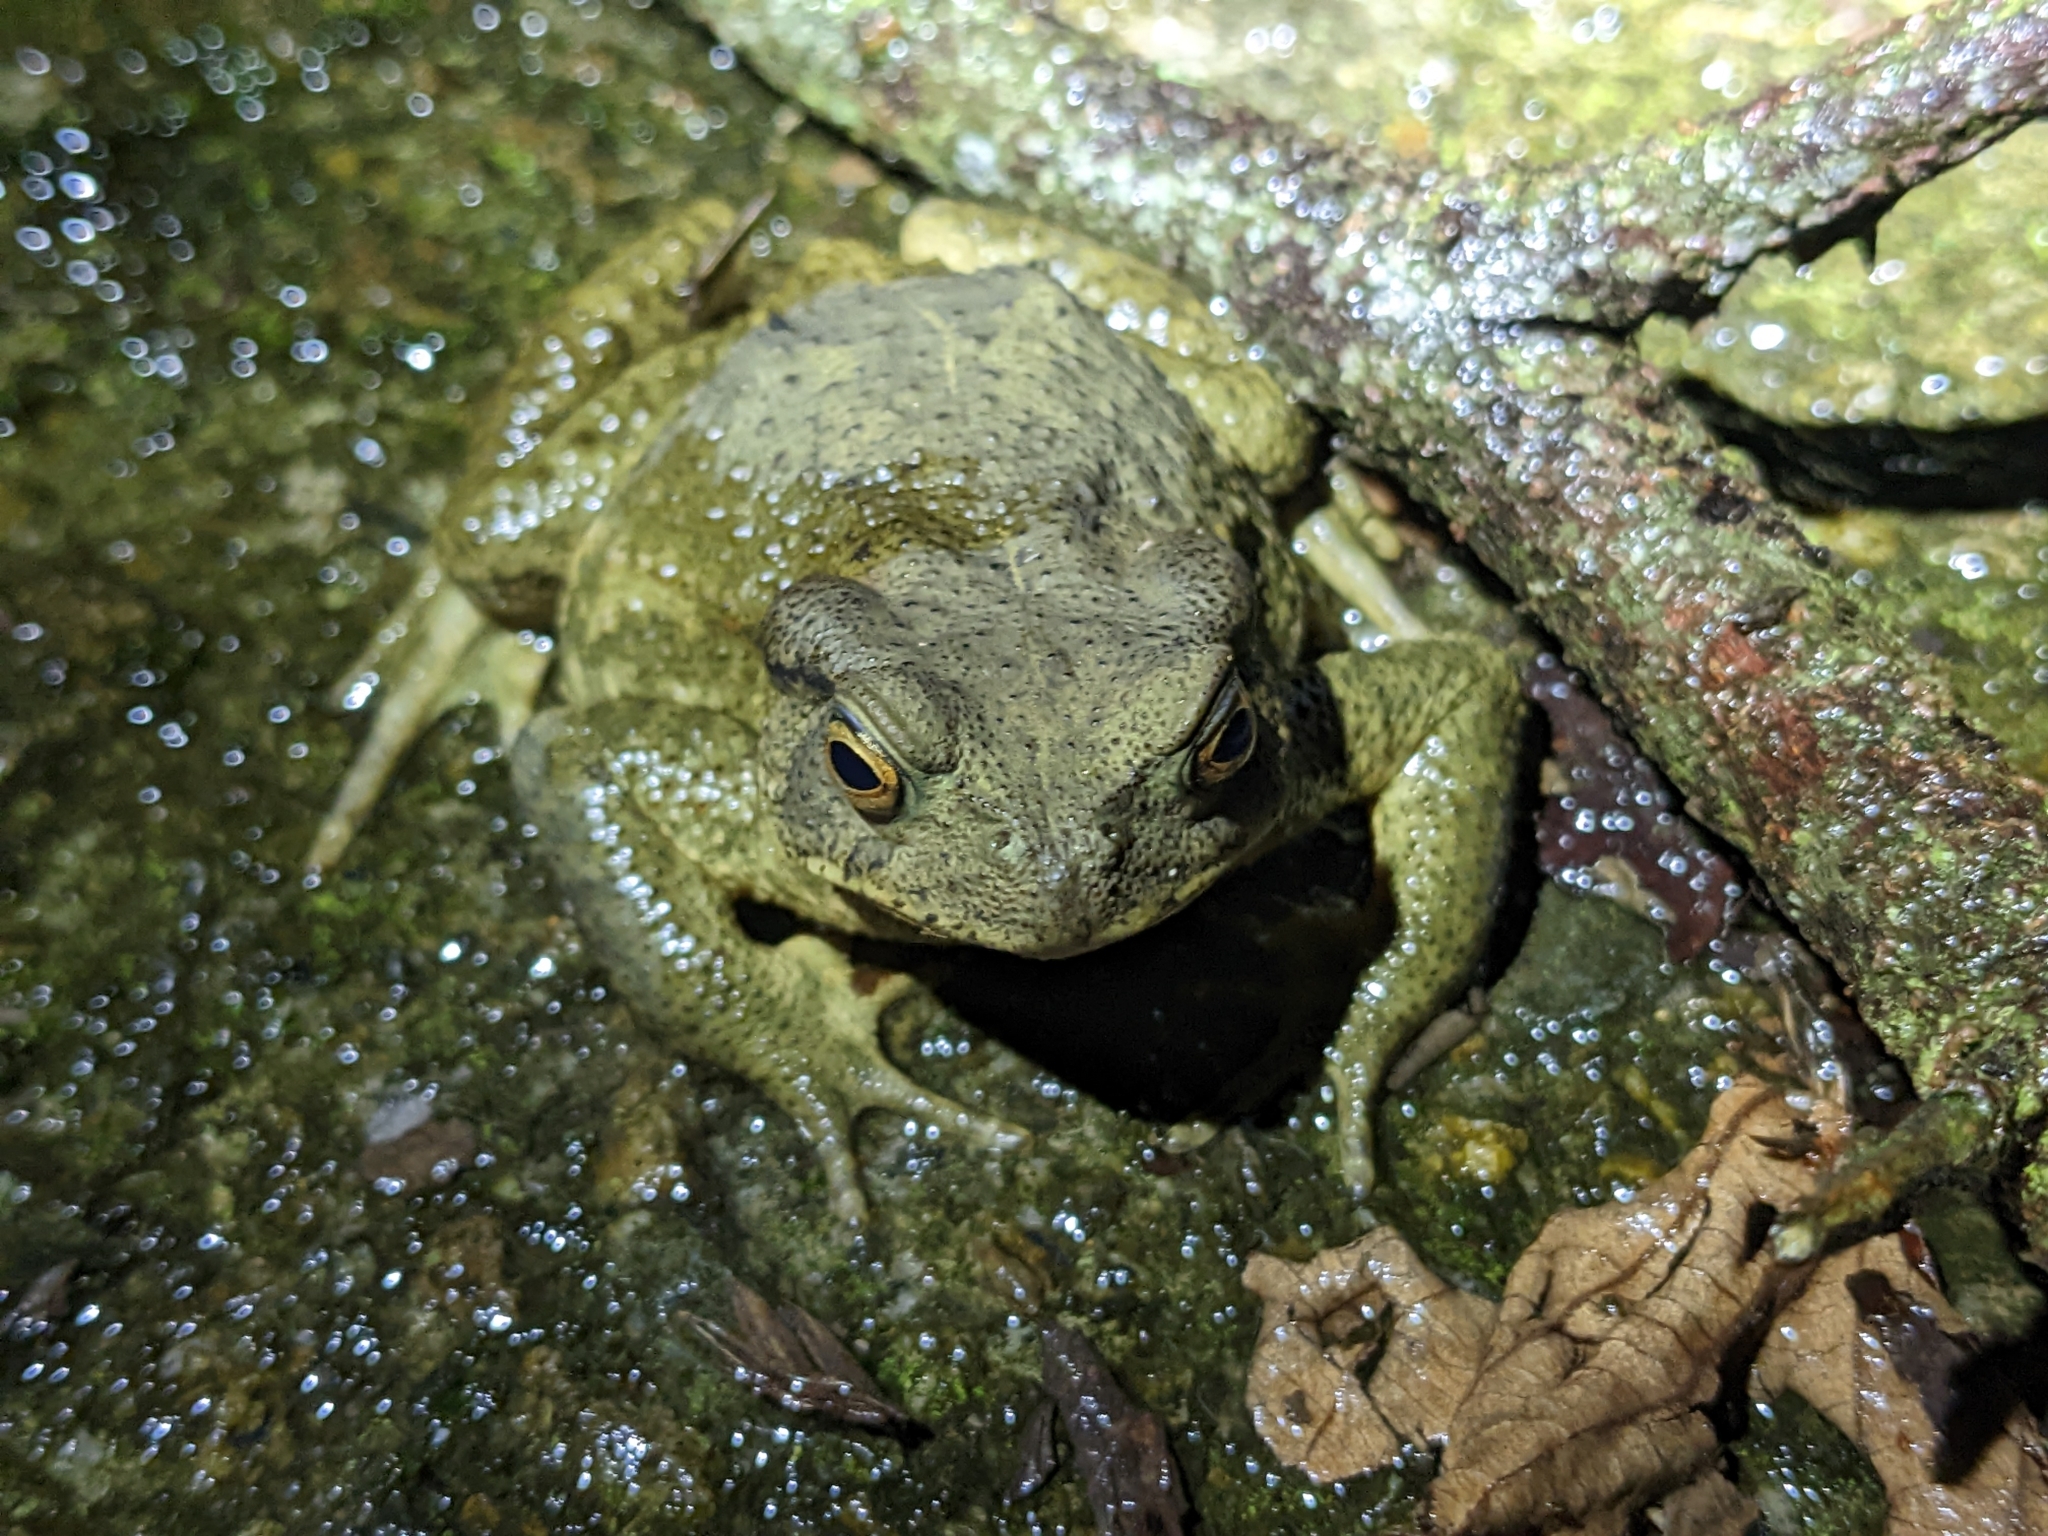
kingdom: Animalia
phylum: Chordata
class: Amphibia
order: Anura
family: Bufonidae
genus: Bufo
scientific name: Bufo bankorensis
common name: Bankor toad
